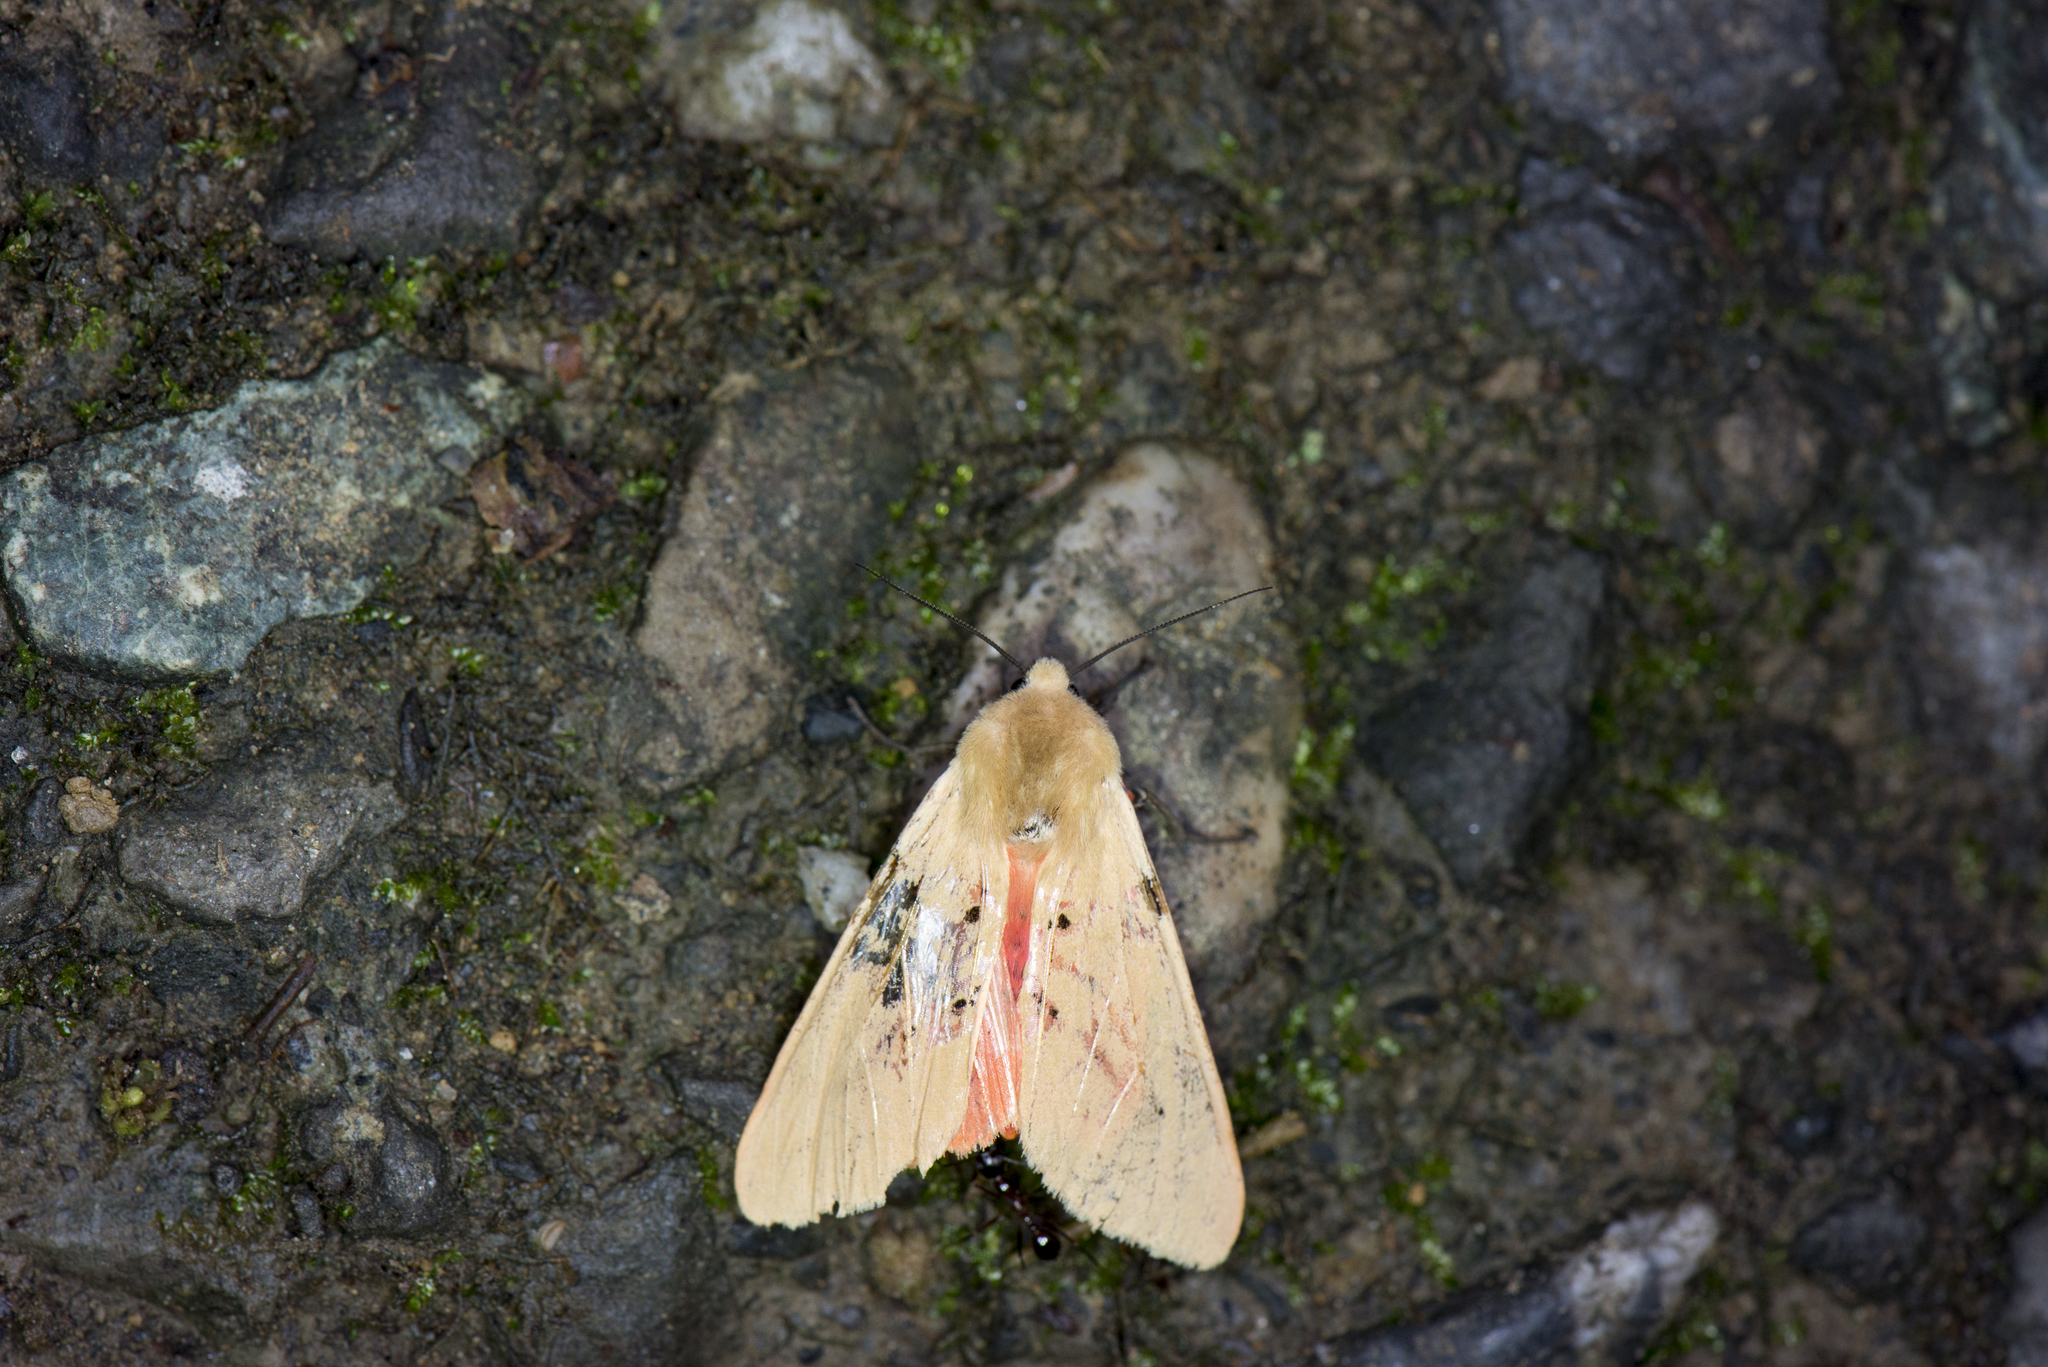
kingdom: Animalia
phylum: Arthropoda
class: Insecta
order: Lepidoptera
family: Erebidae
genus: Spilarctia
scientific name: Spilarctia wilemani
